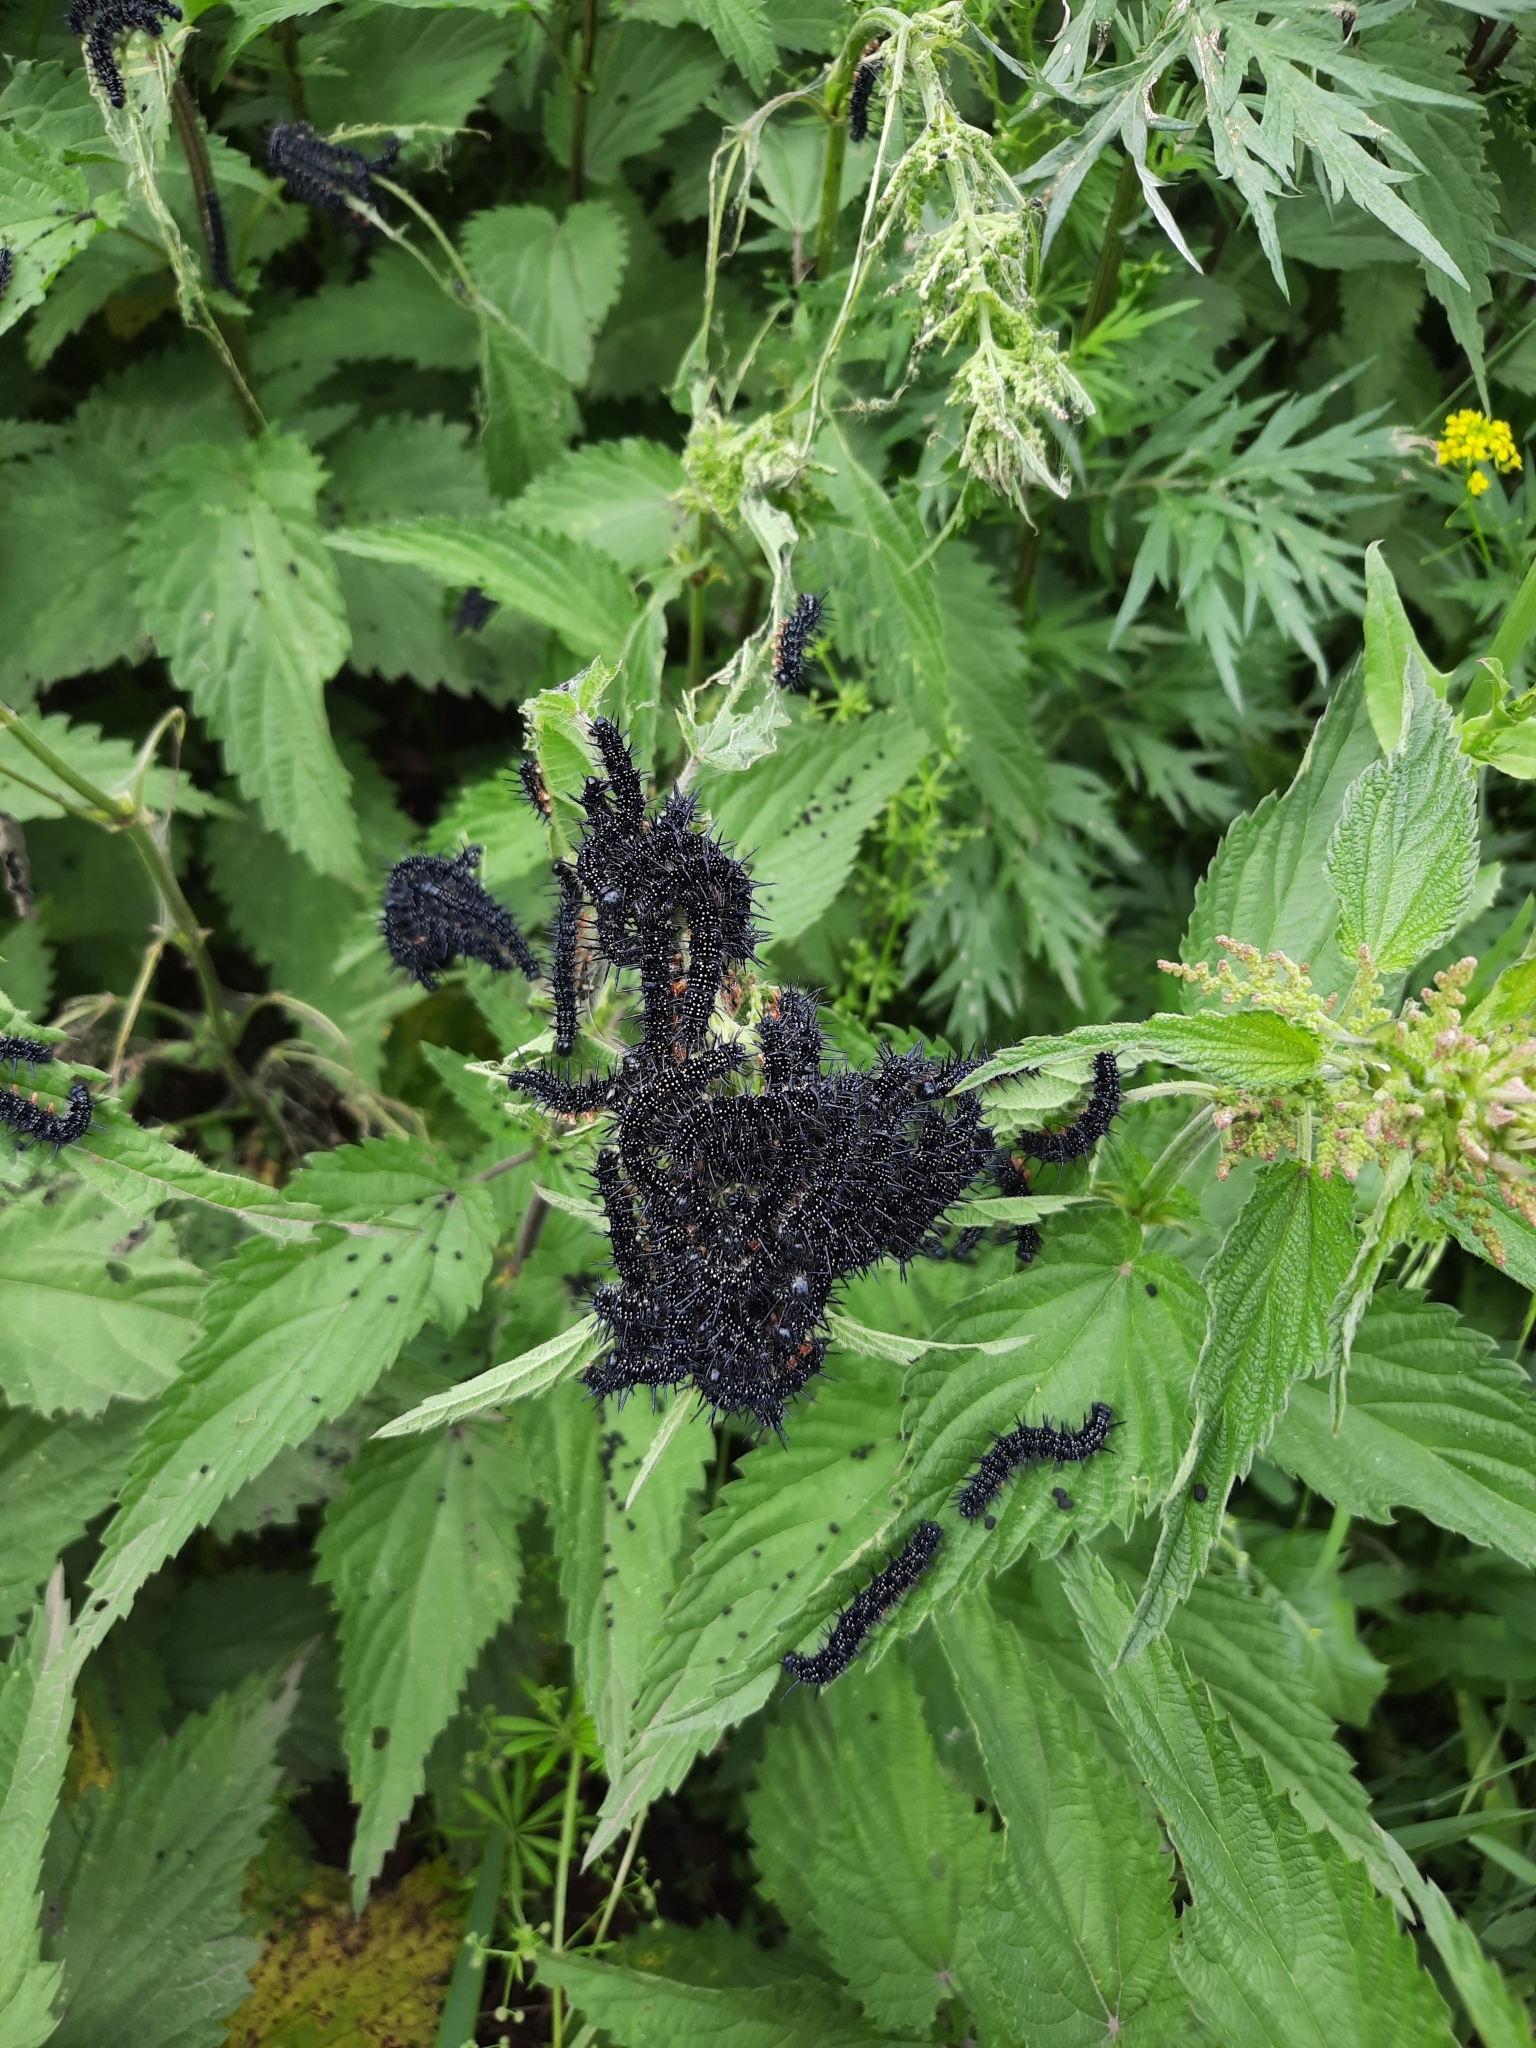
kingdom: Animalia
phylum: Arthropoda
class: Insecta
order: Lepidoptera
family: Nymphalidae
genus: Aglais
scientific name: Aglais io
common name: Peacock
